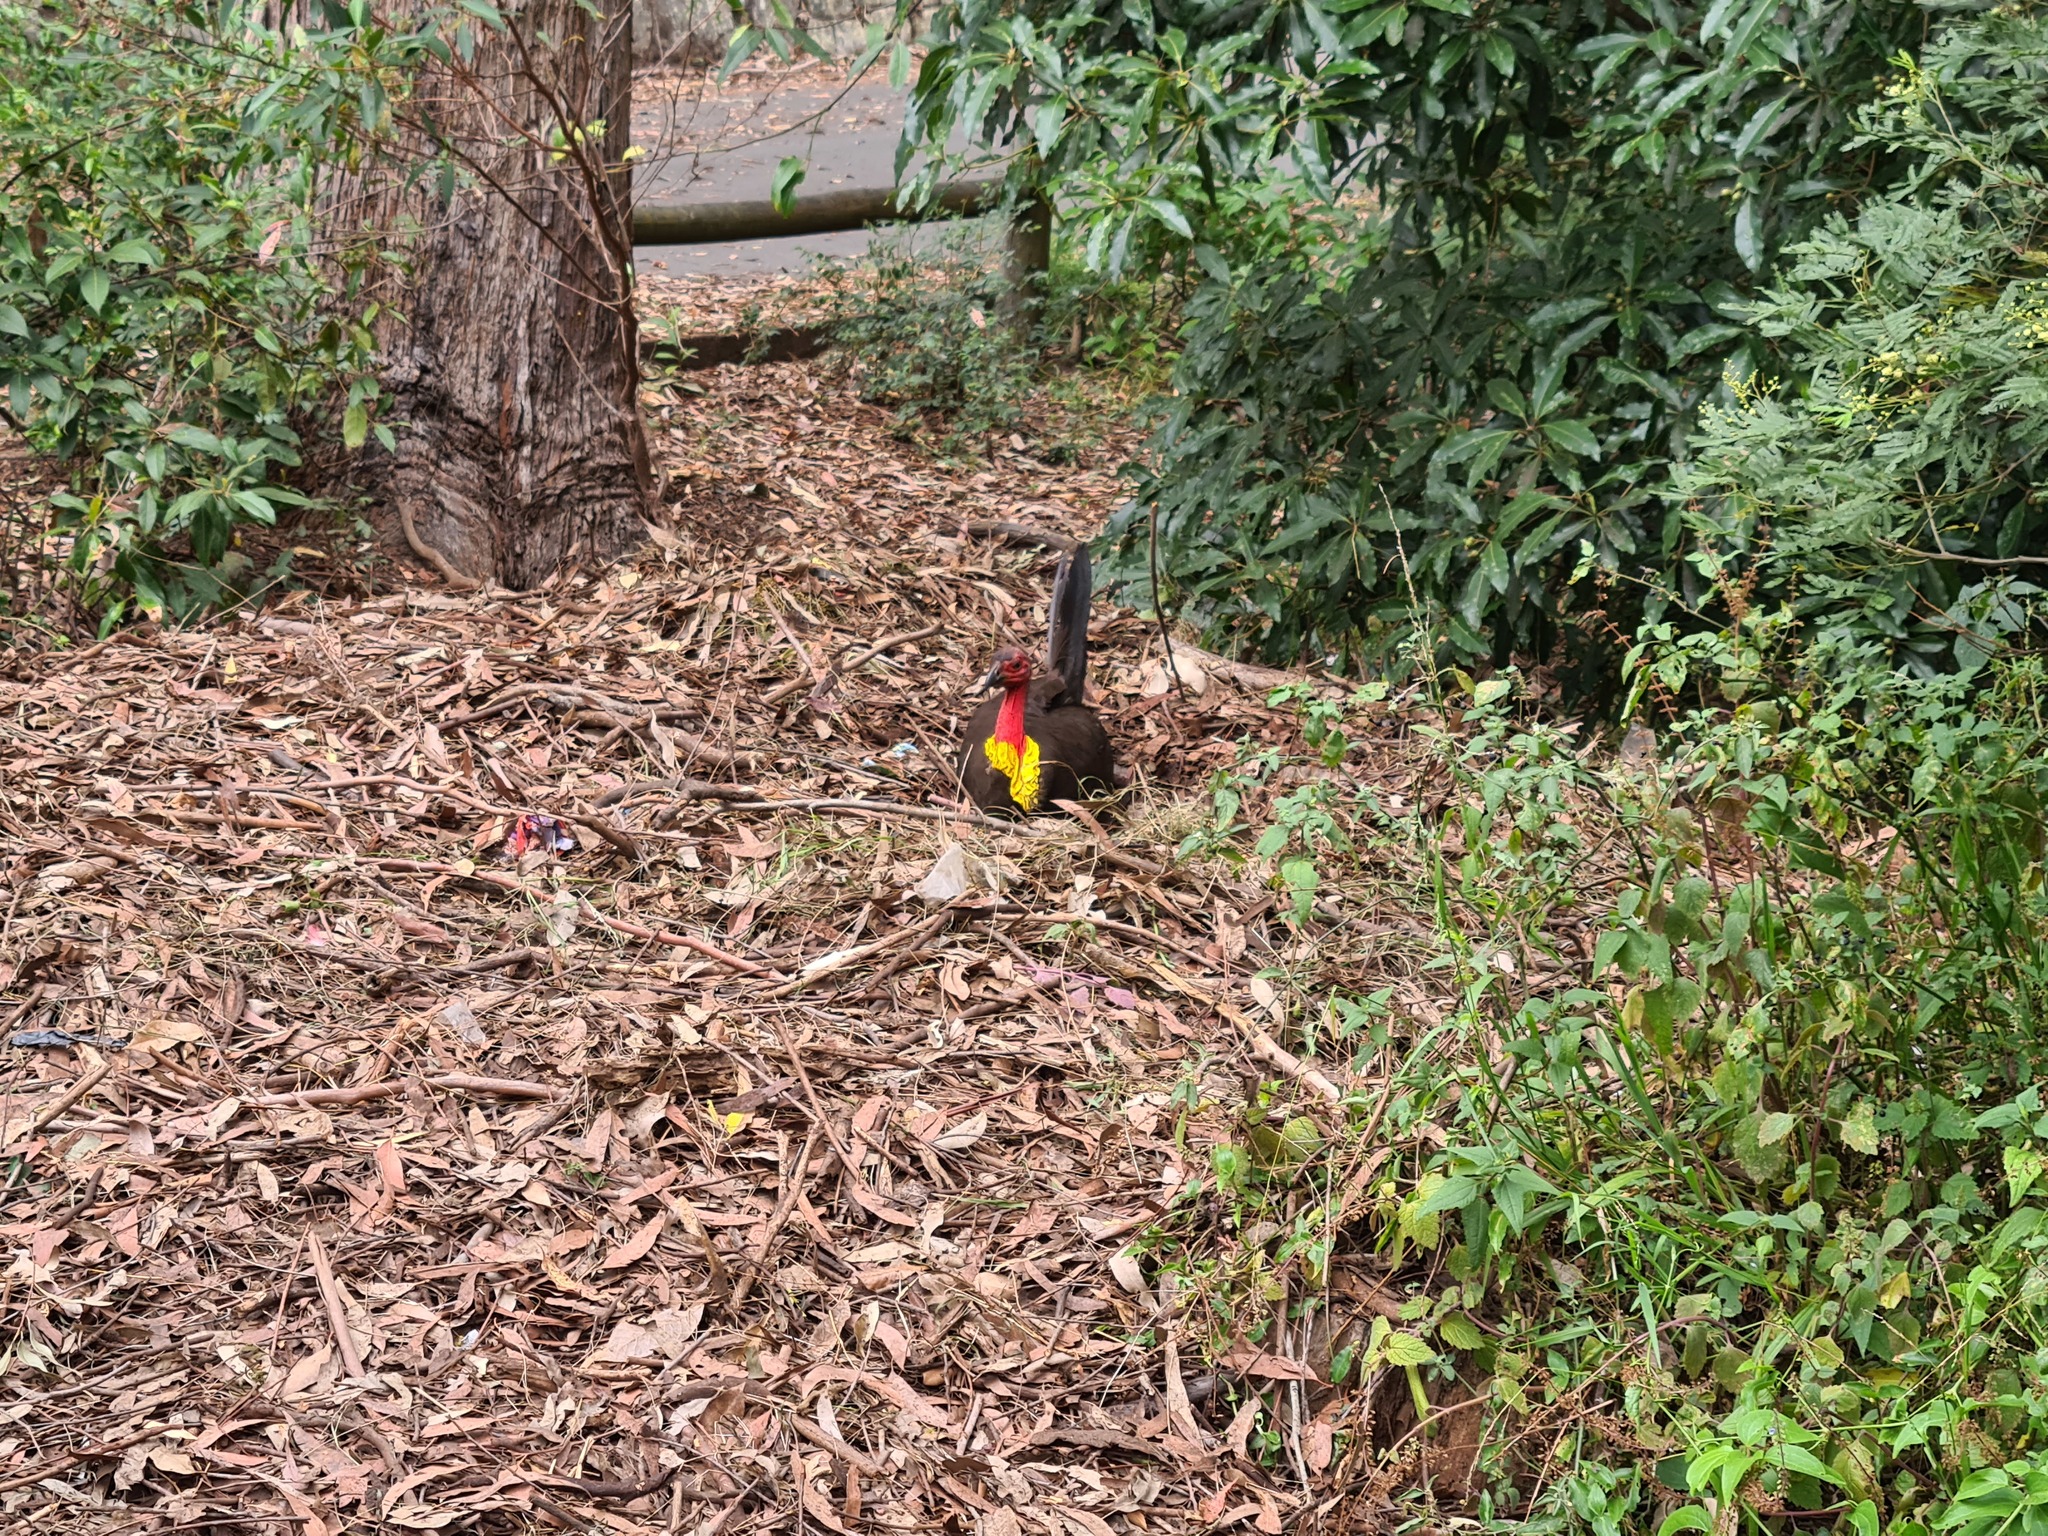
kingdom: Animalia
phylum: Chordata
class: Aves
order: Galliformes
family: Megapodiidae
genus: Alectura
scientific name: Alectura lathami
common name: Australian brushturkey
